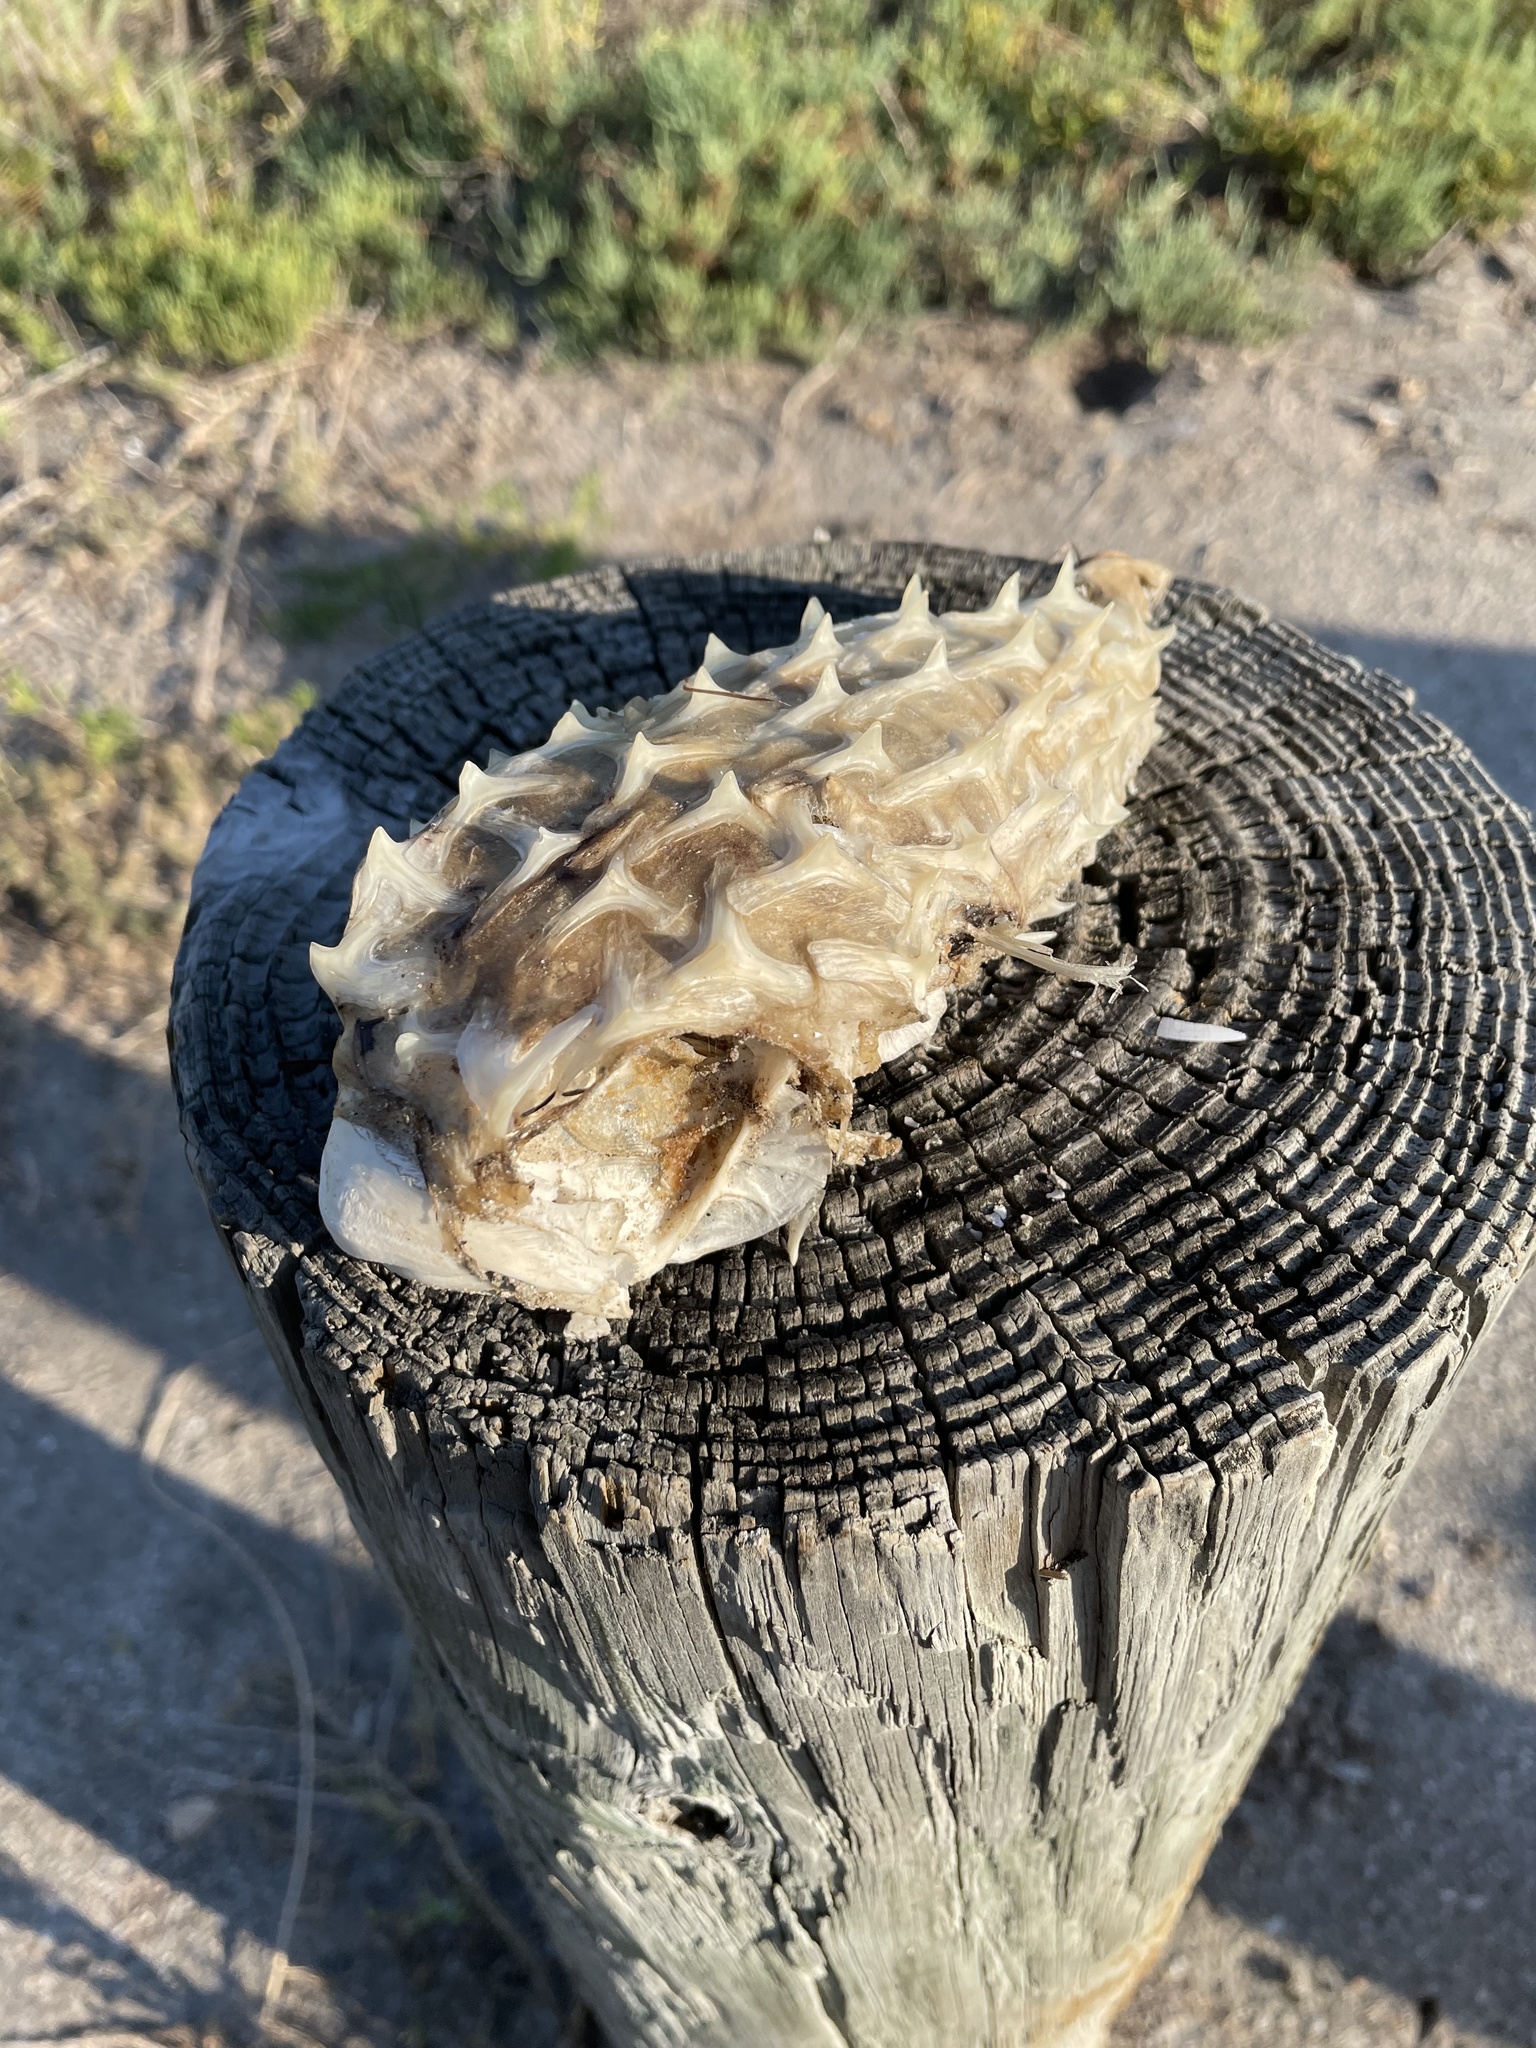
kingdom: Animalia
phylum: Chordata
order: Tetraodontiformes
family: Diodontidae
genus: Chilomycterus
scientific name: Chilomycterus schoepfii
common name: Striped burrfish
